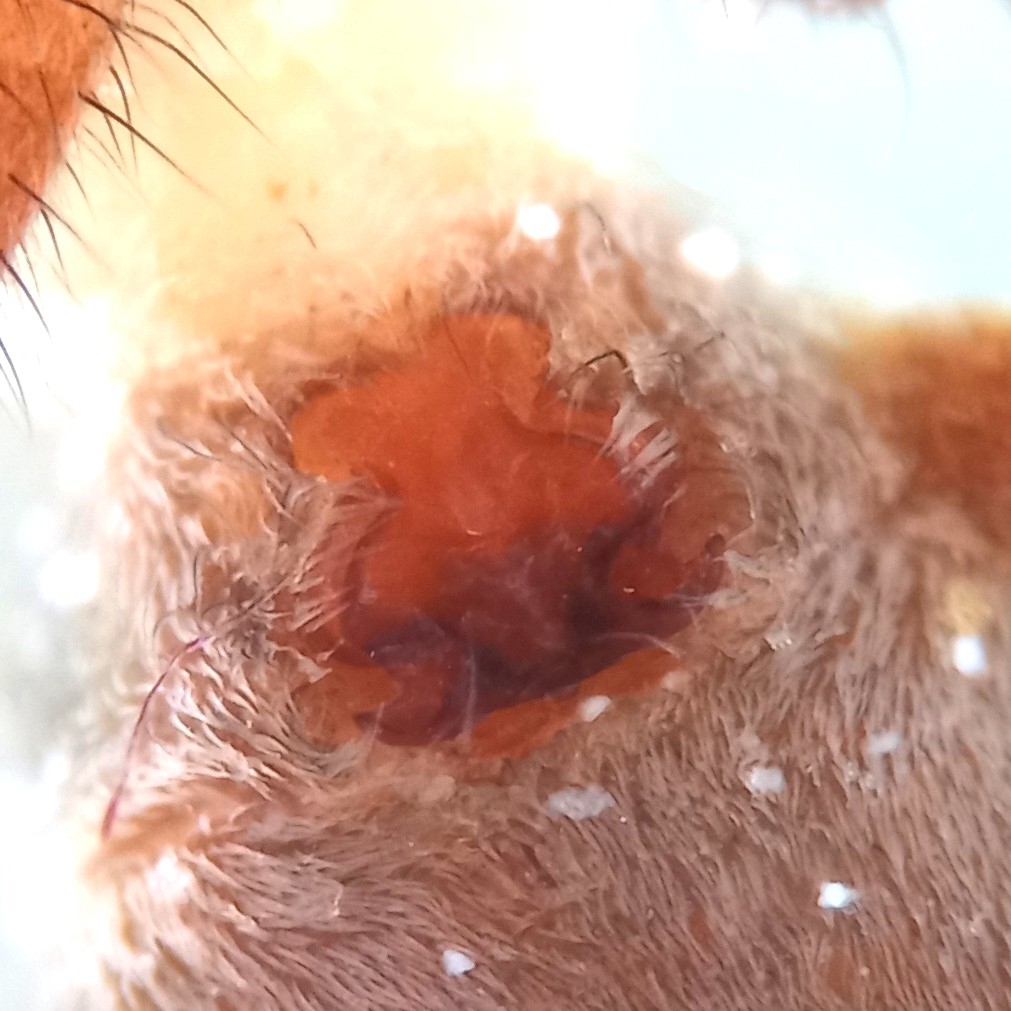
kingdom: Animalia
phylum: Arthropoda
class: Arachnida
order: Araneae
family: Lycosidae
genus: Pardosa
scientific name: Pardosa agricola
